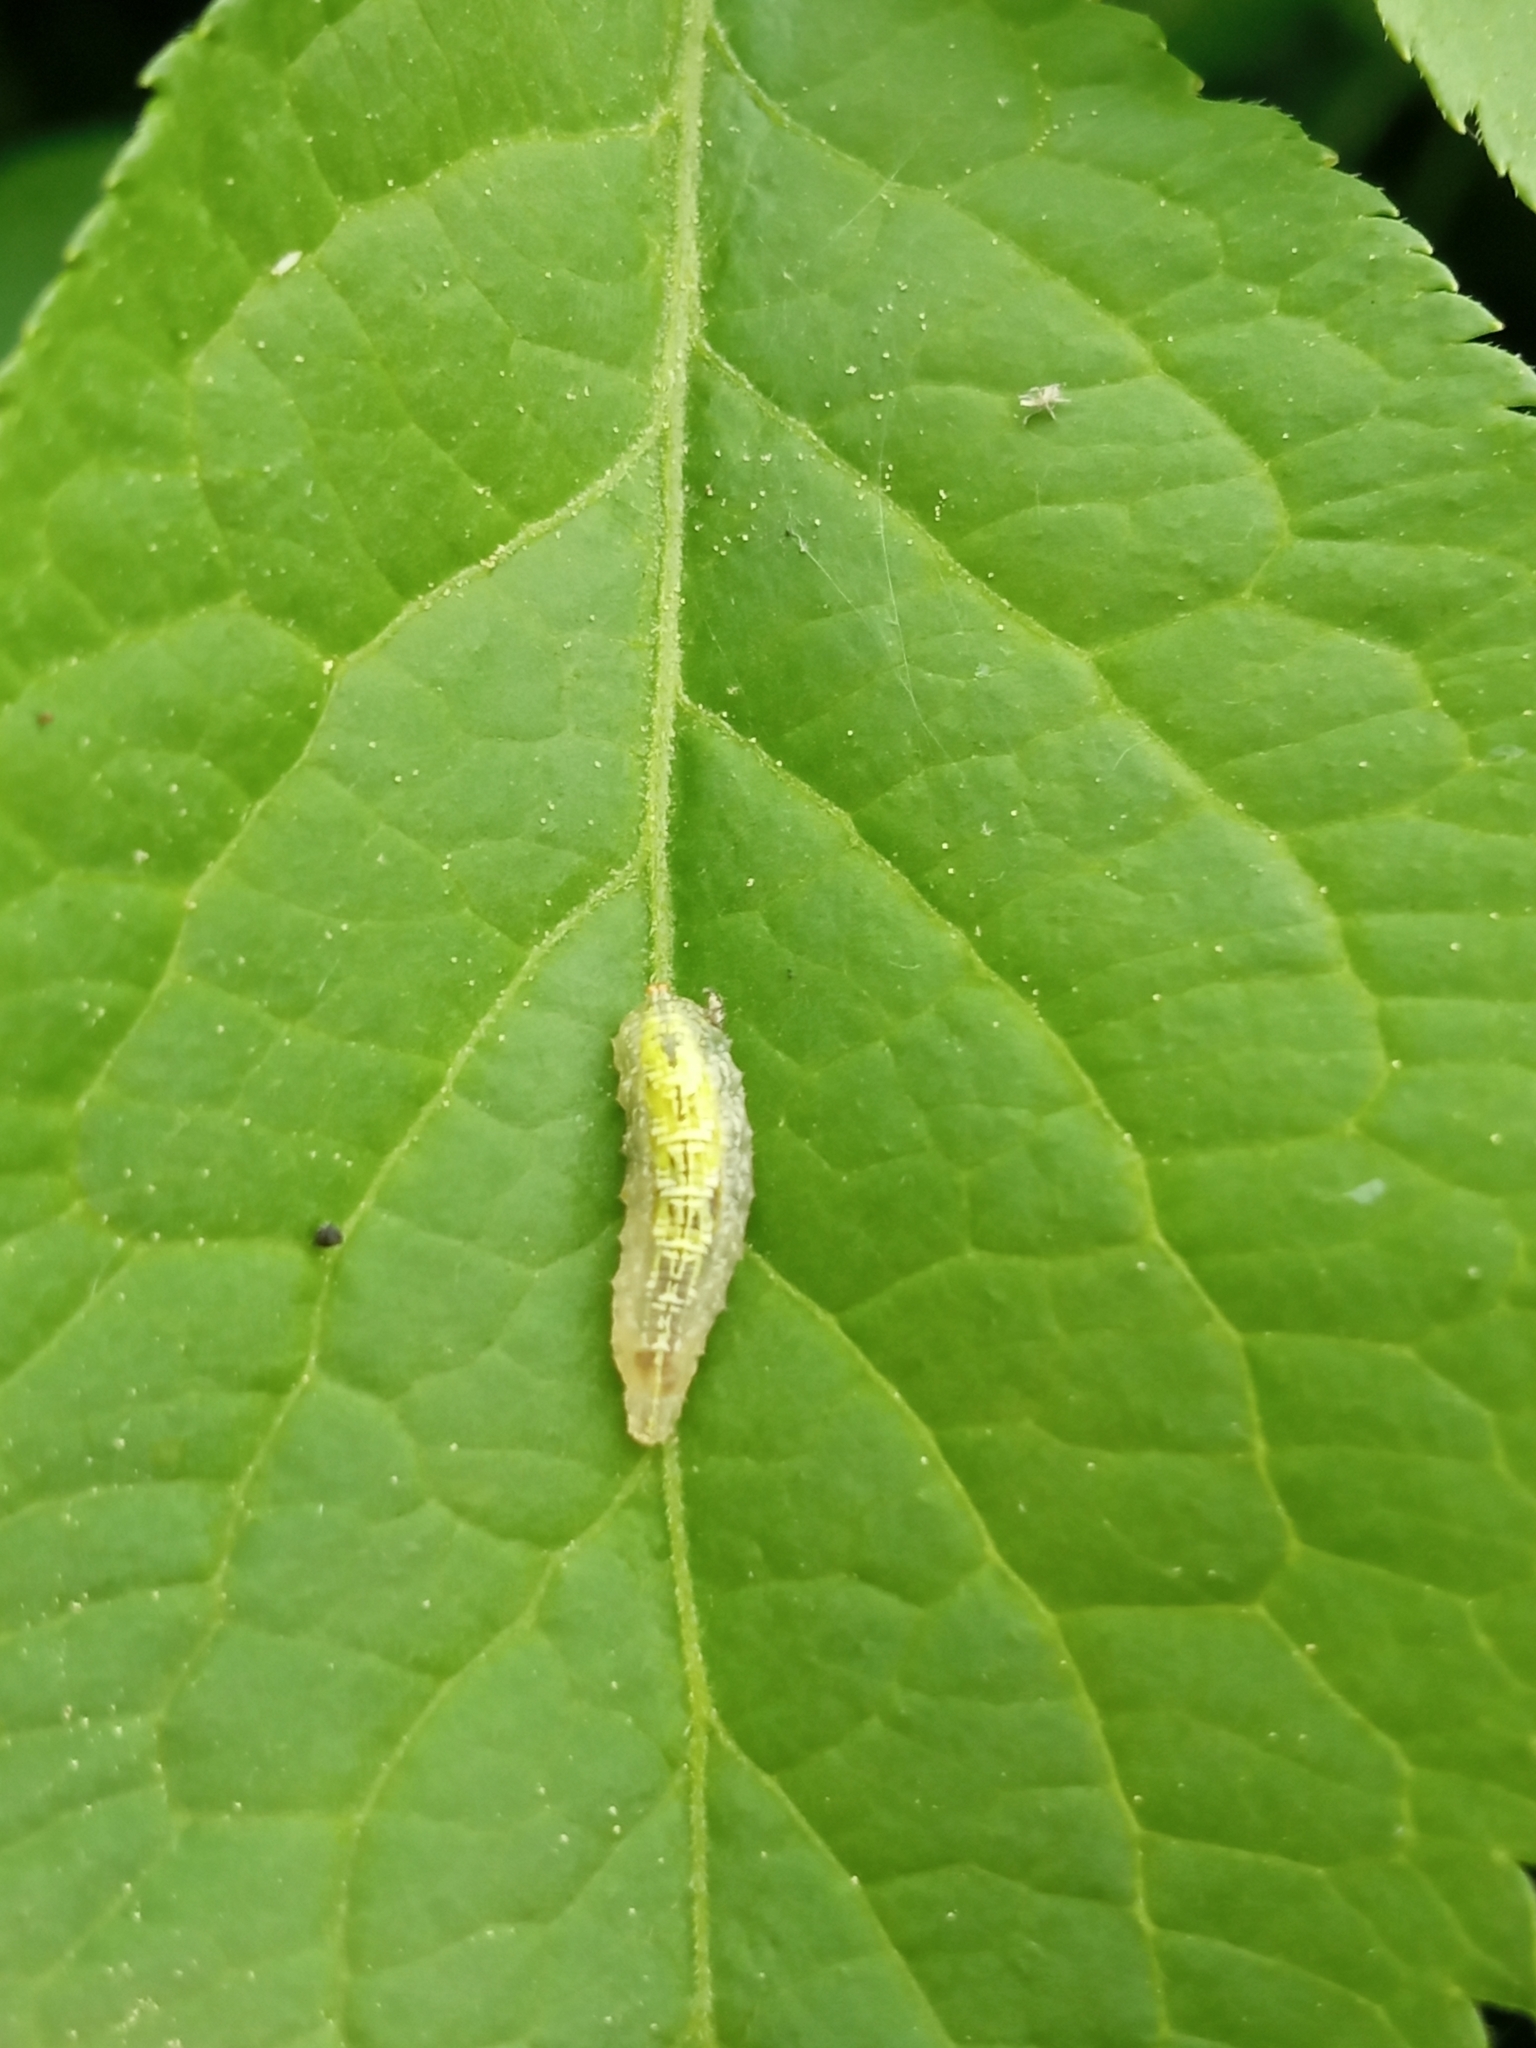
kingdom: Animalia
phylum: Arthropoda
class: Insecta
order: Diptera
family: Syrphidae
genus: Syrphus
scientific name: Syrphus
